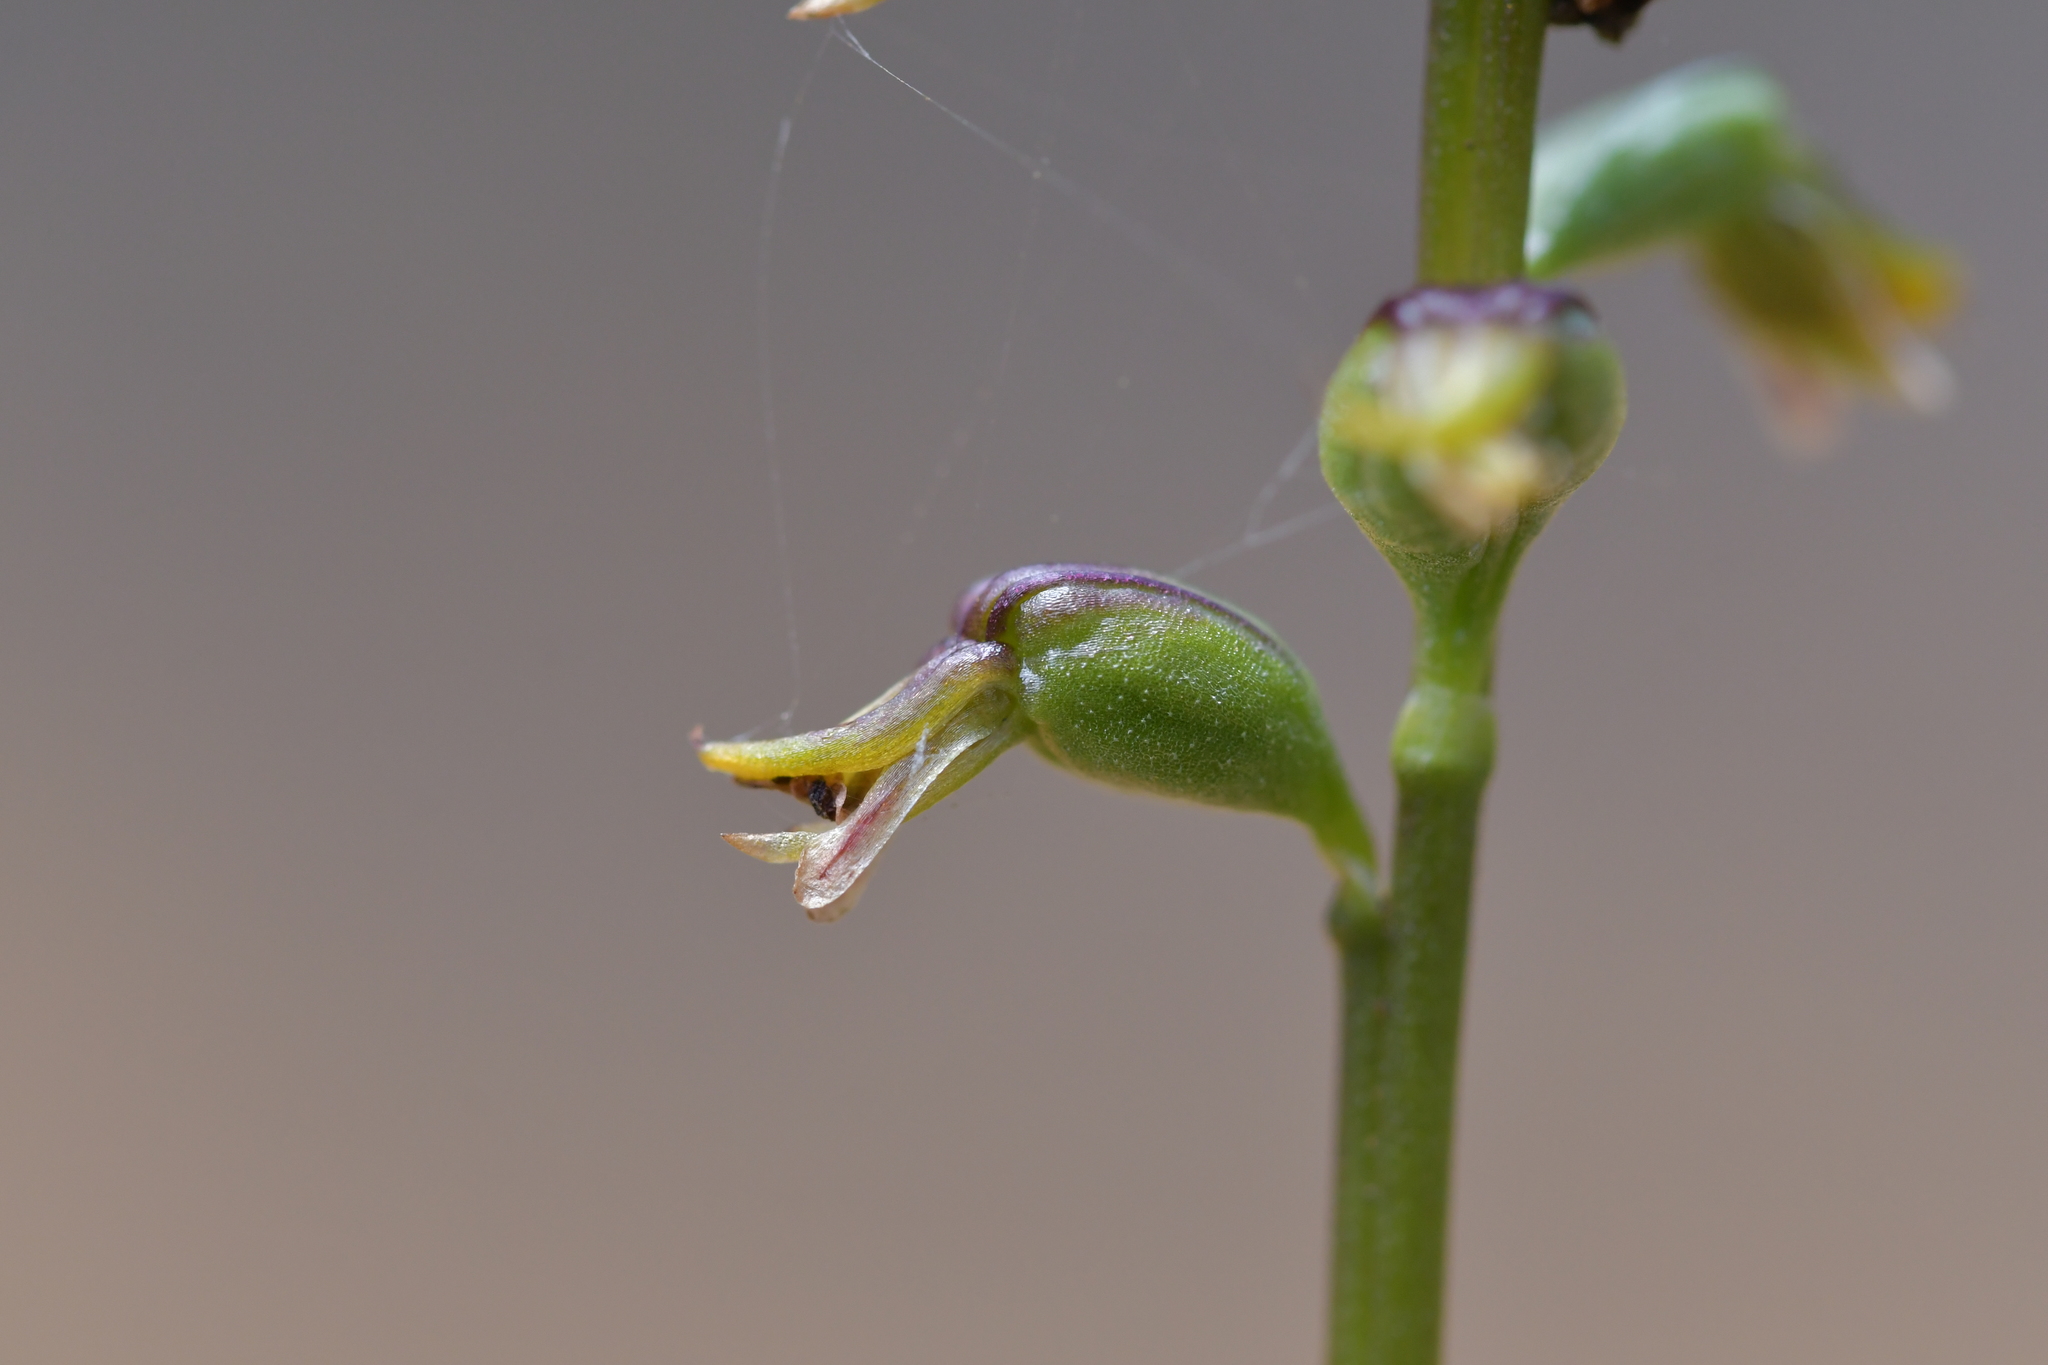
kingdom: Plantae
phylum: Tracheophyta
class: Liliopsida
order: Asparagales
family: Orchidaceae
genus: Prasophyllum
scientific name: Prasophyllum colensoi
